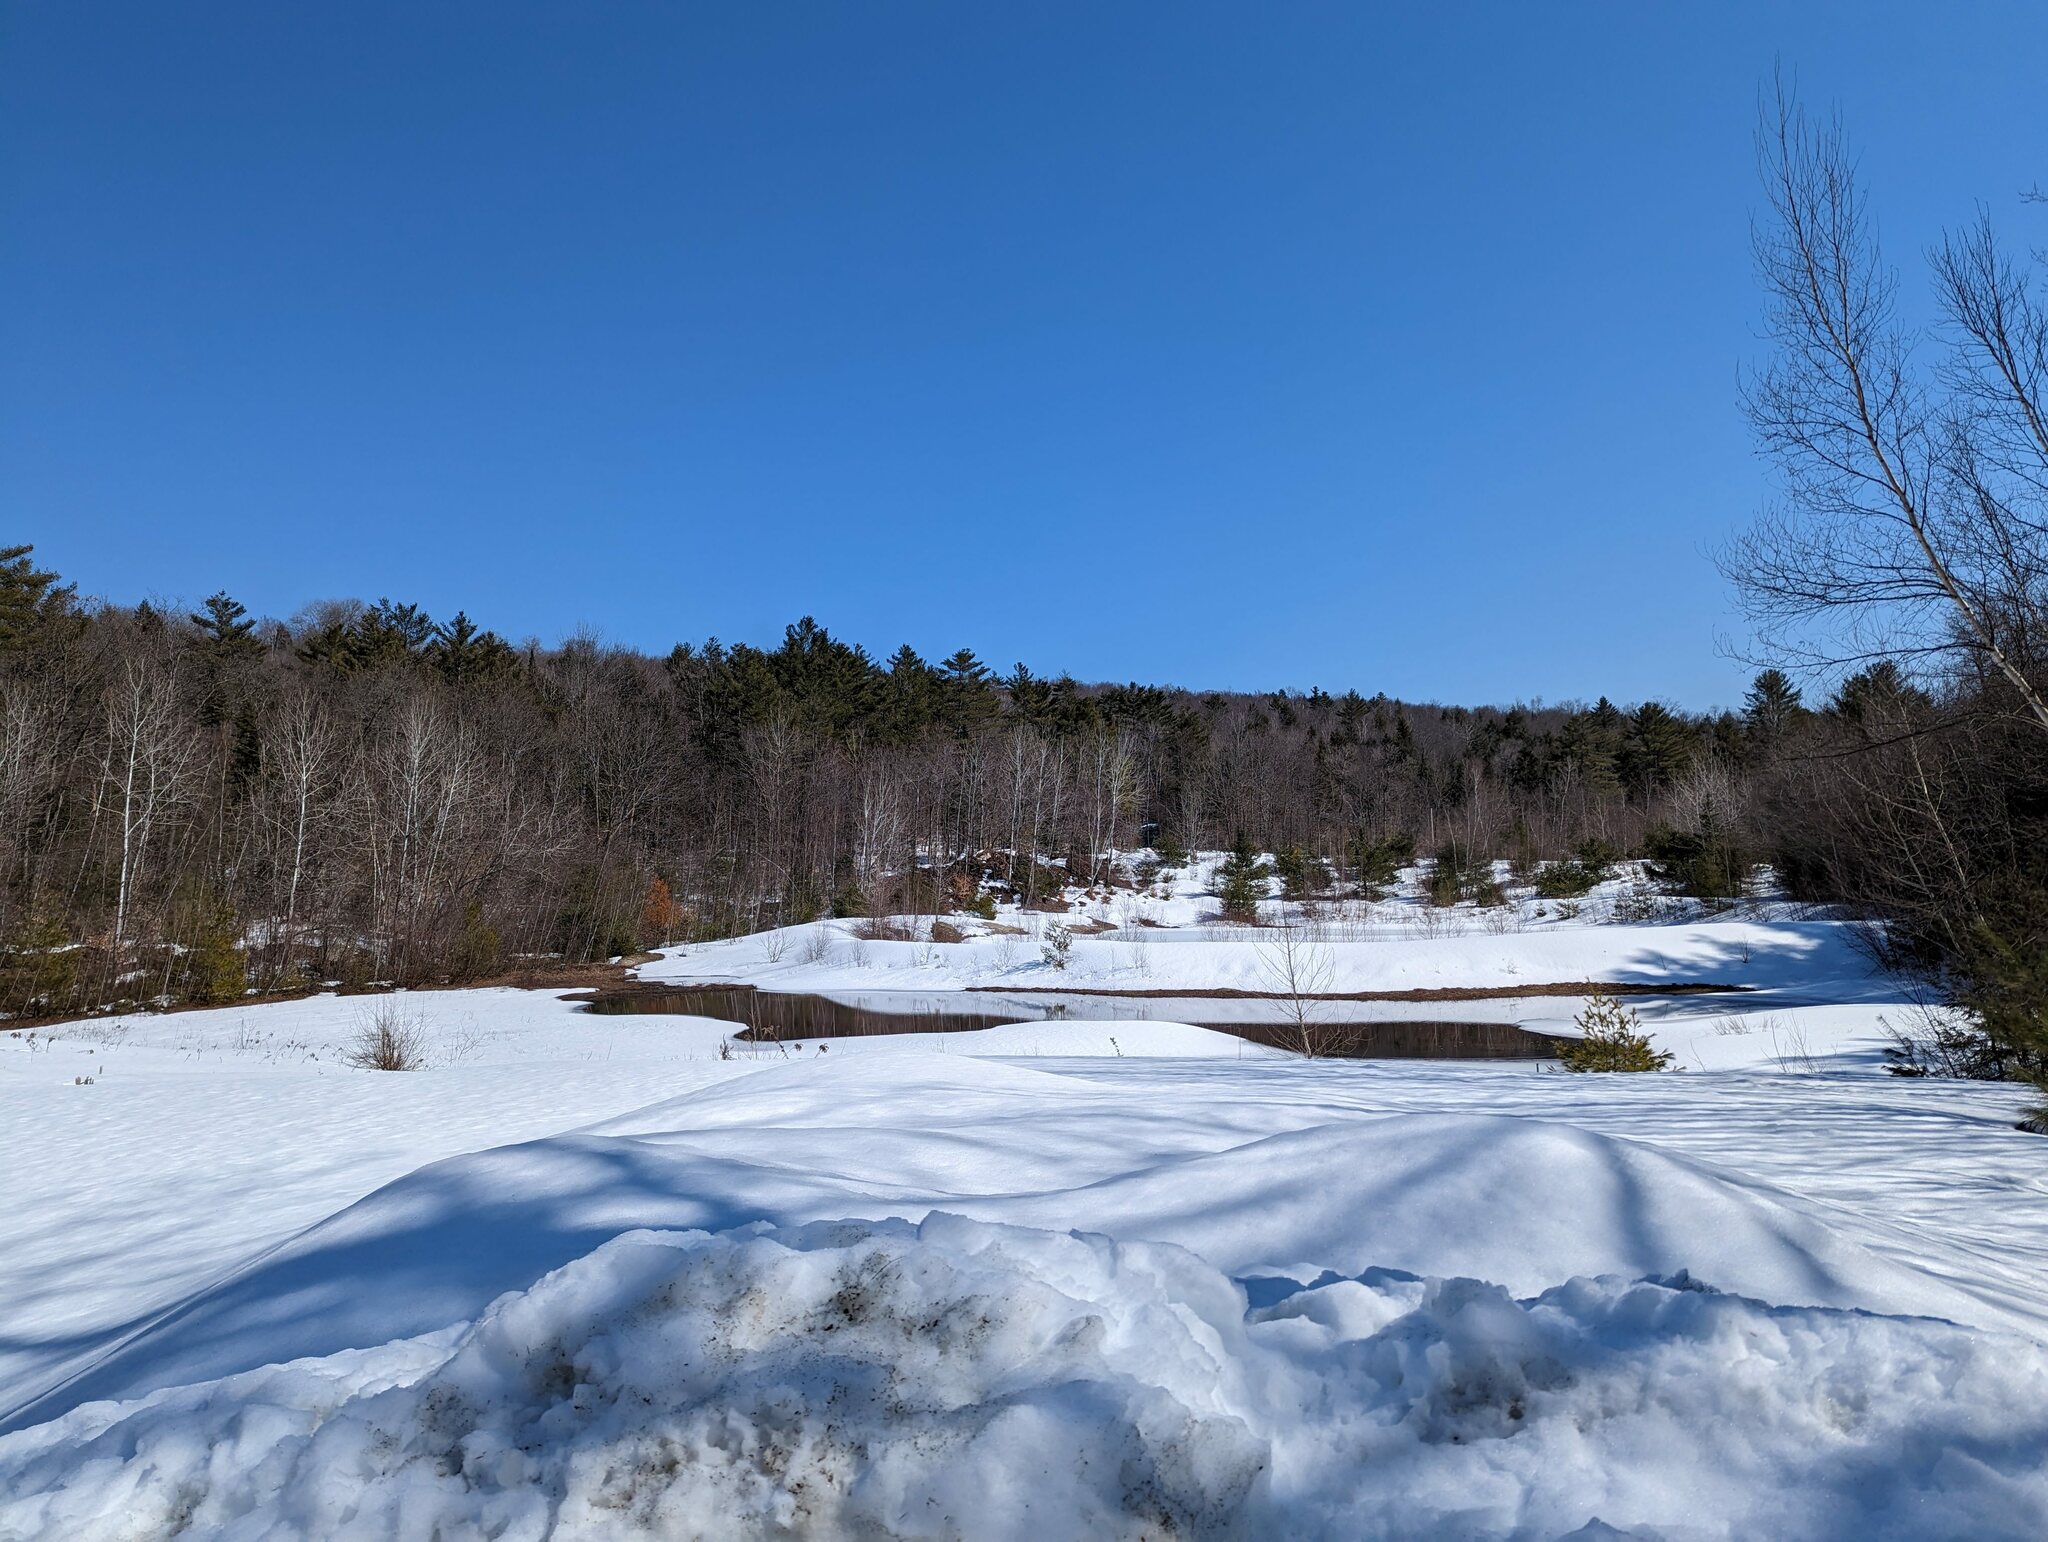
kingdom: Plantae
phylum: Tracheophyta
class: Pinopsida
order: Pinales
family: Pinaceae
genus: Pinus
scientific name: Pinus strobus
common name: Weymouth pine
